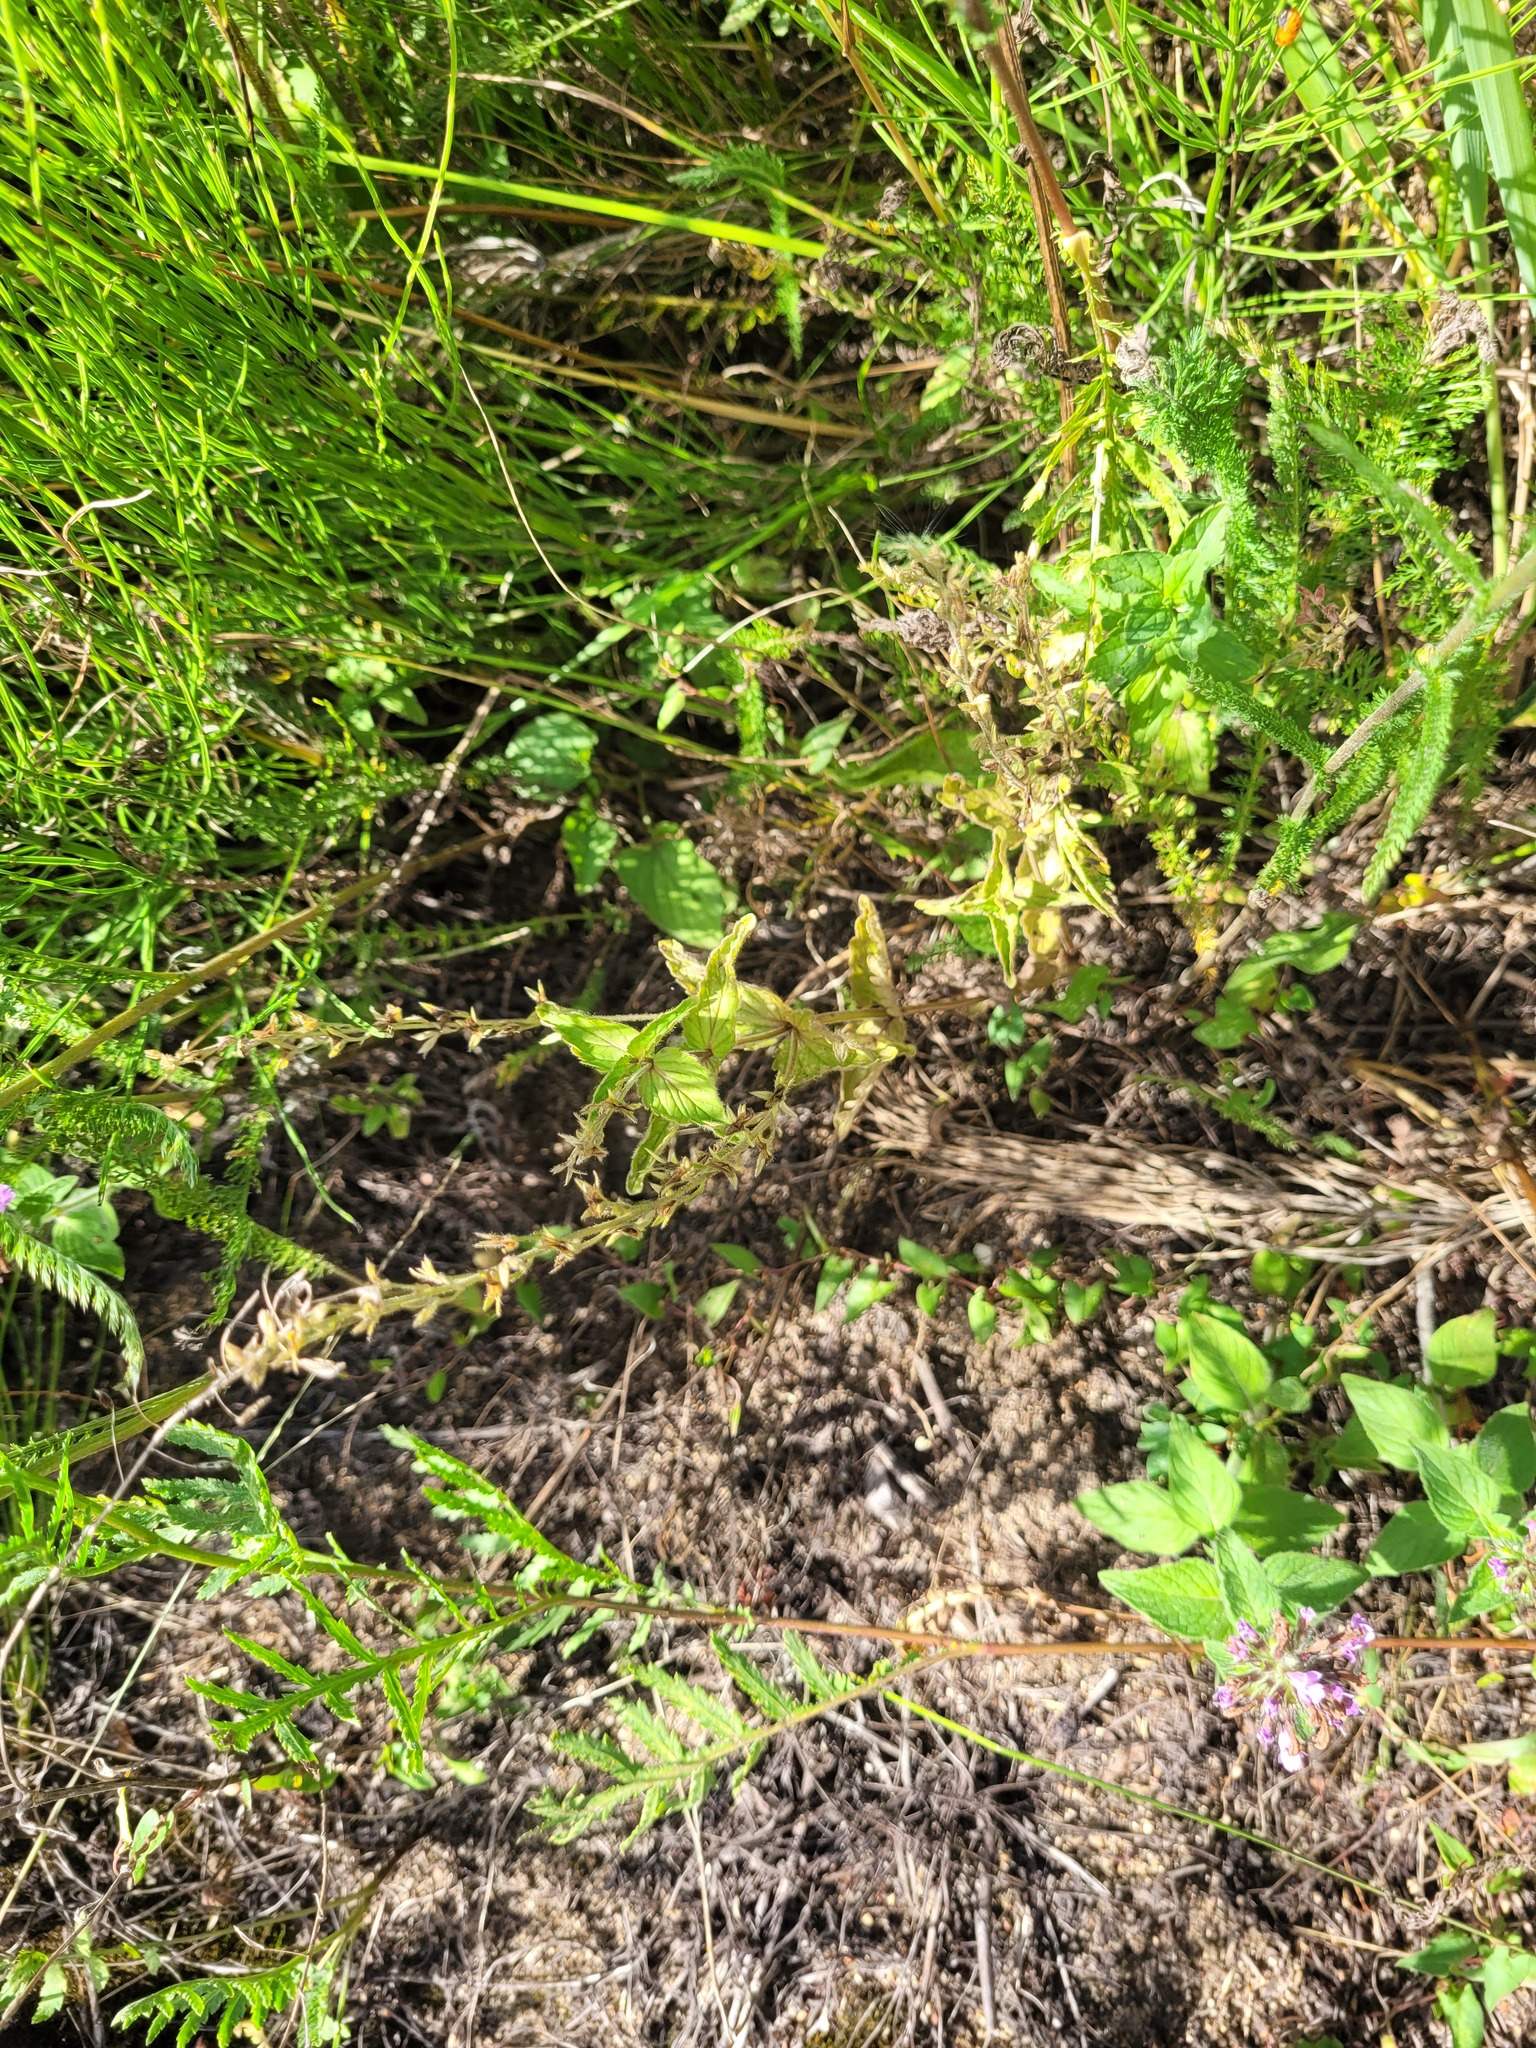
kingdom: Plantae
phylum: Tracheophyta
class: Magnoliopsida
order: Lamiales
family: Plantaginaceae
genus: Veronica
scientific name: Veronica chamaedrys
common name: Germander speedwell
